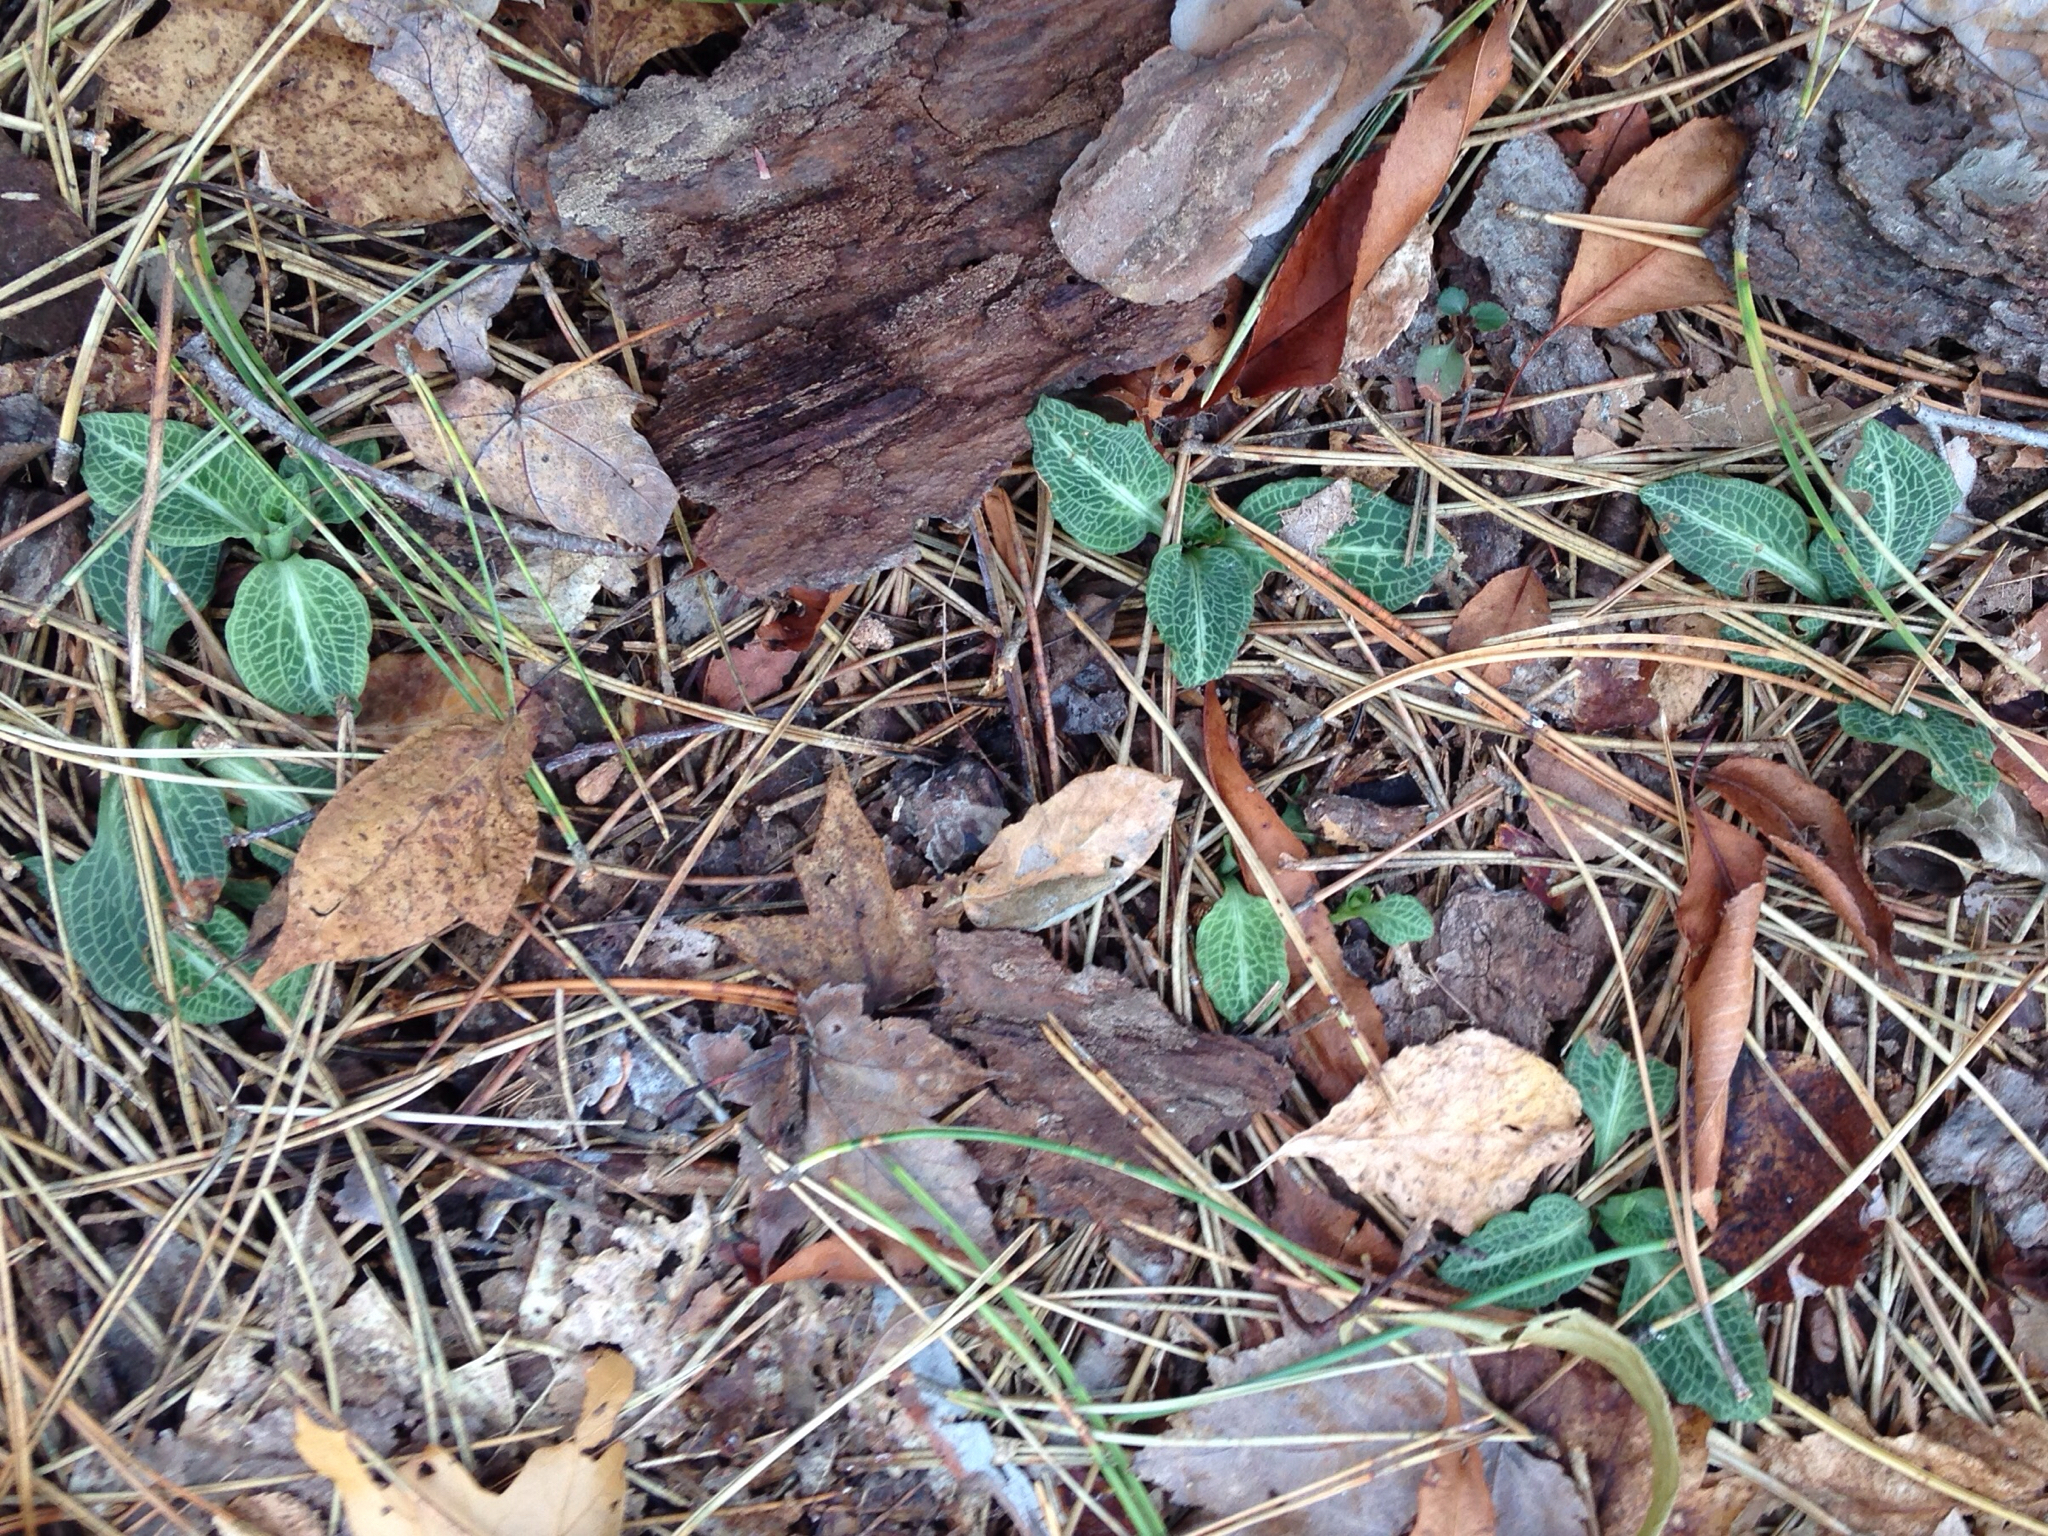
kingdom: Plantae
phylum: Tracheophyta
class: Liliopsida
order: Asparagales
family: Orchidaceae
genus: Goodyera
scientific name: Goodyera pubescens
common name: Downy rattlesnake-plantain
